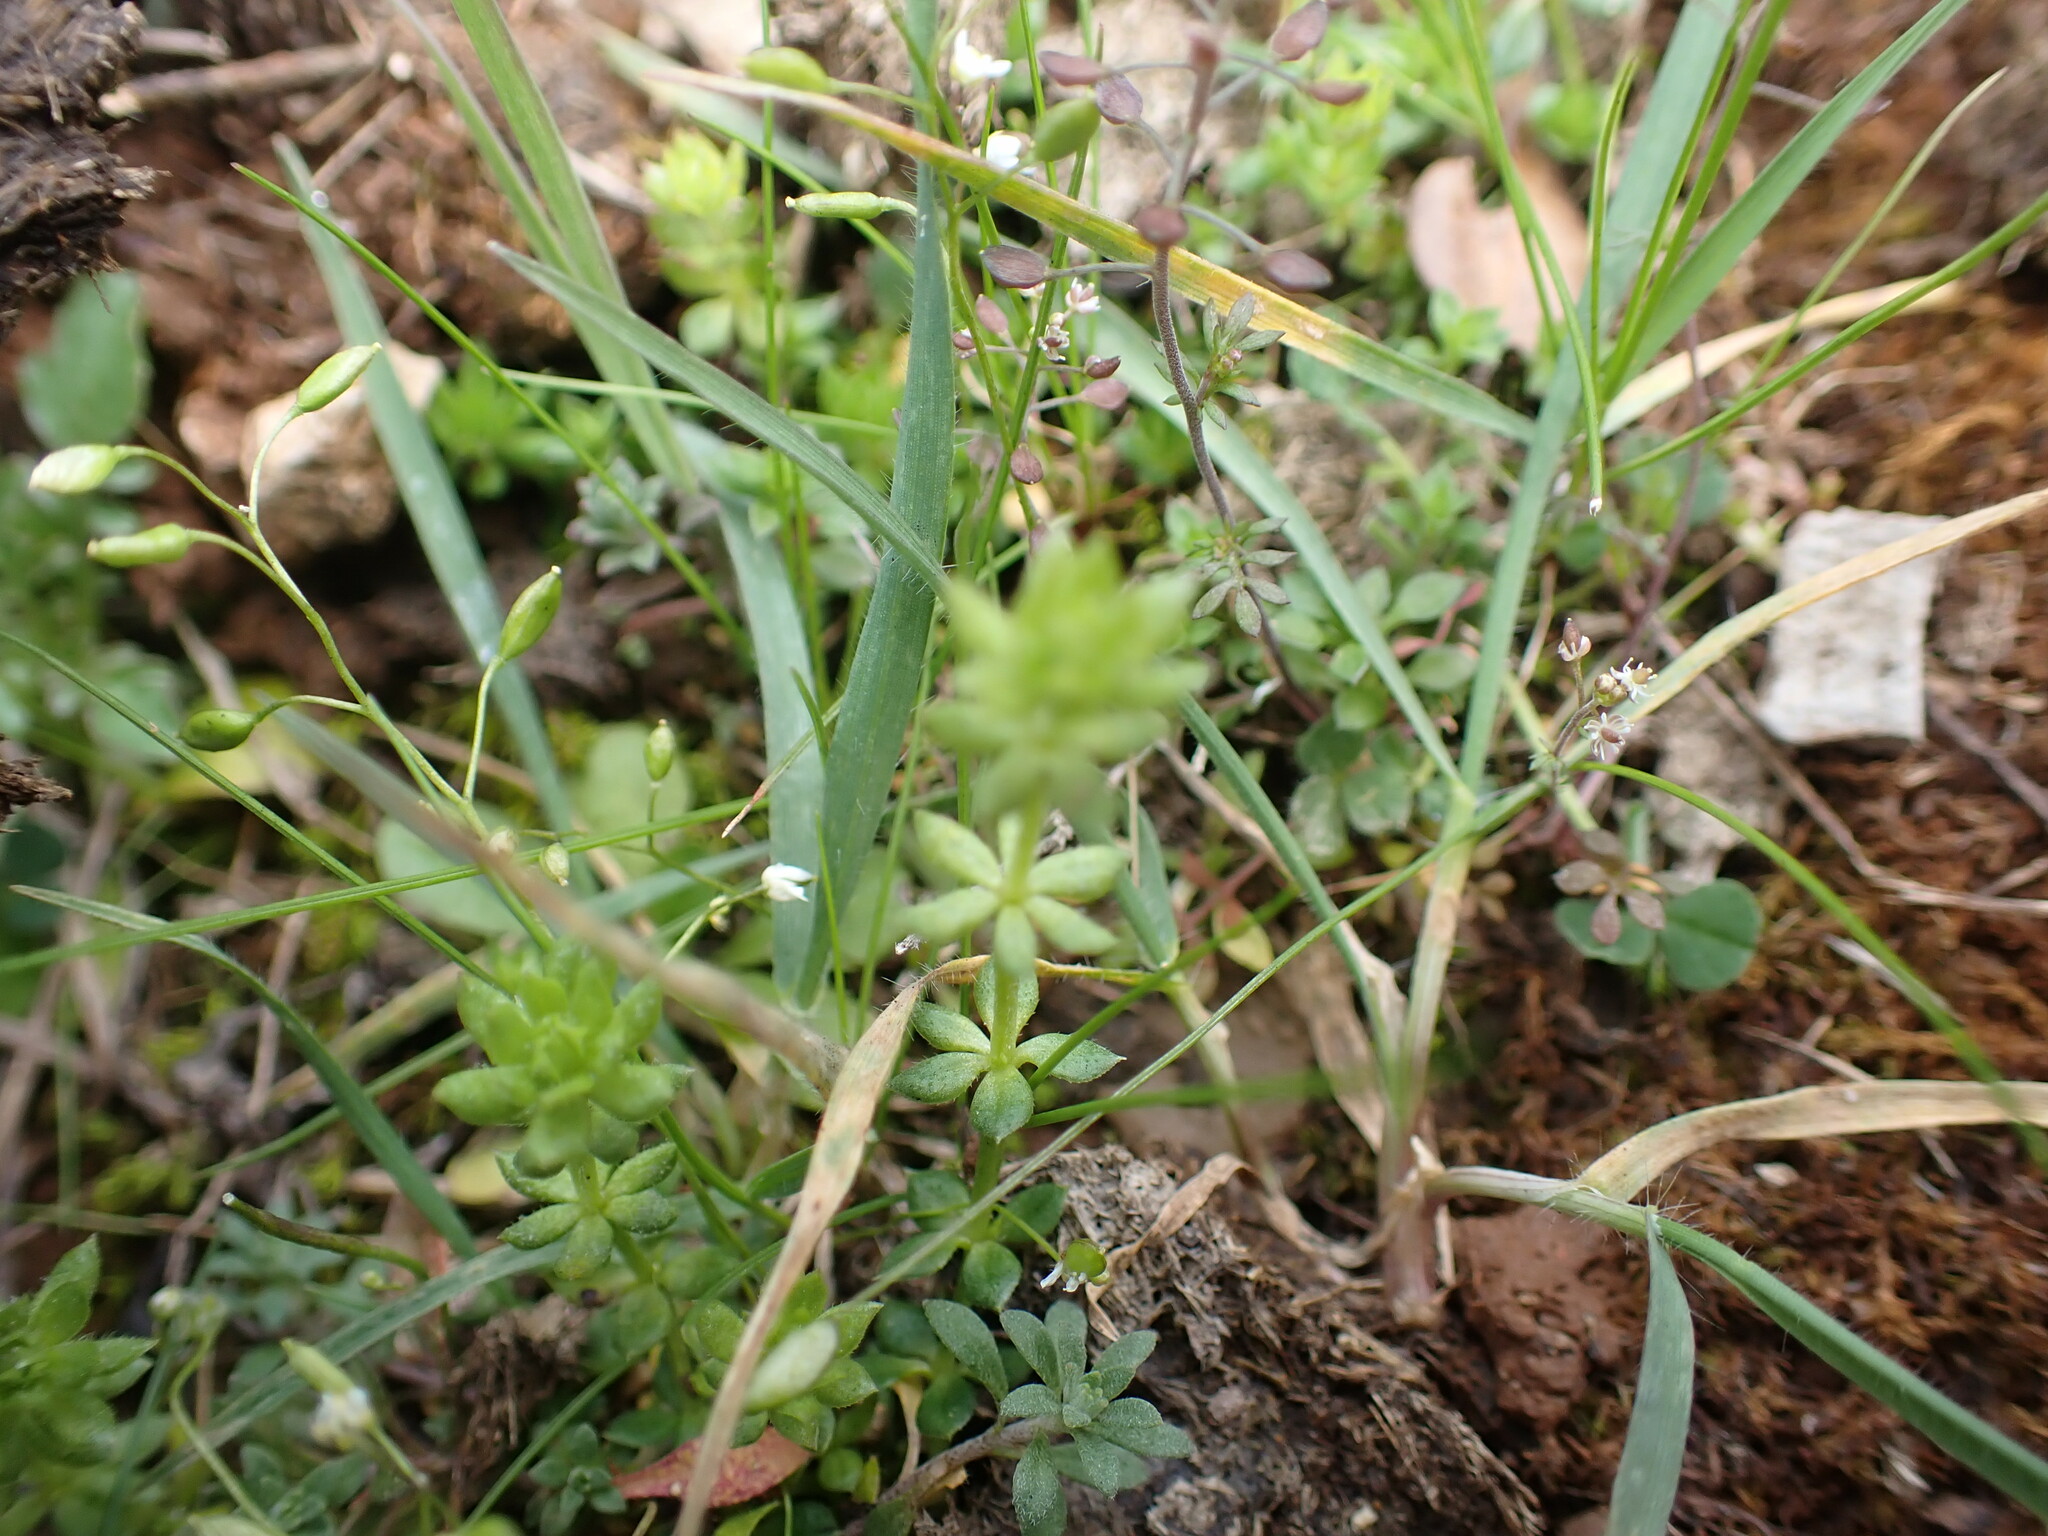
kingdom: Plantae
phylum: Tracheophyta
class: Magnoliopsida
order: Gentianales
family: Rubiaceae
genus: Sherardia
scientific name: Sherardia arvensis
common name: Field madder
